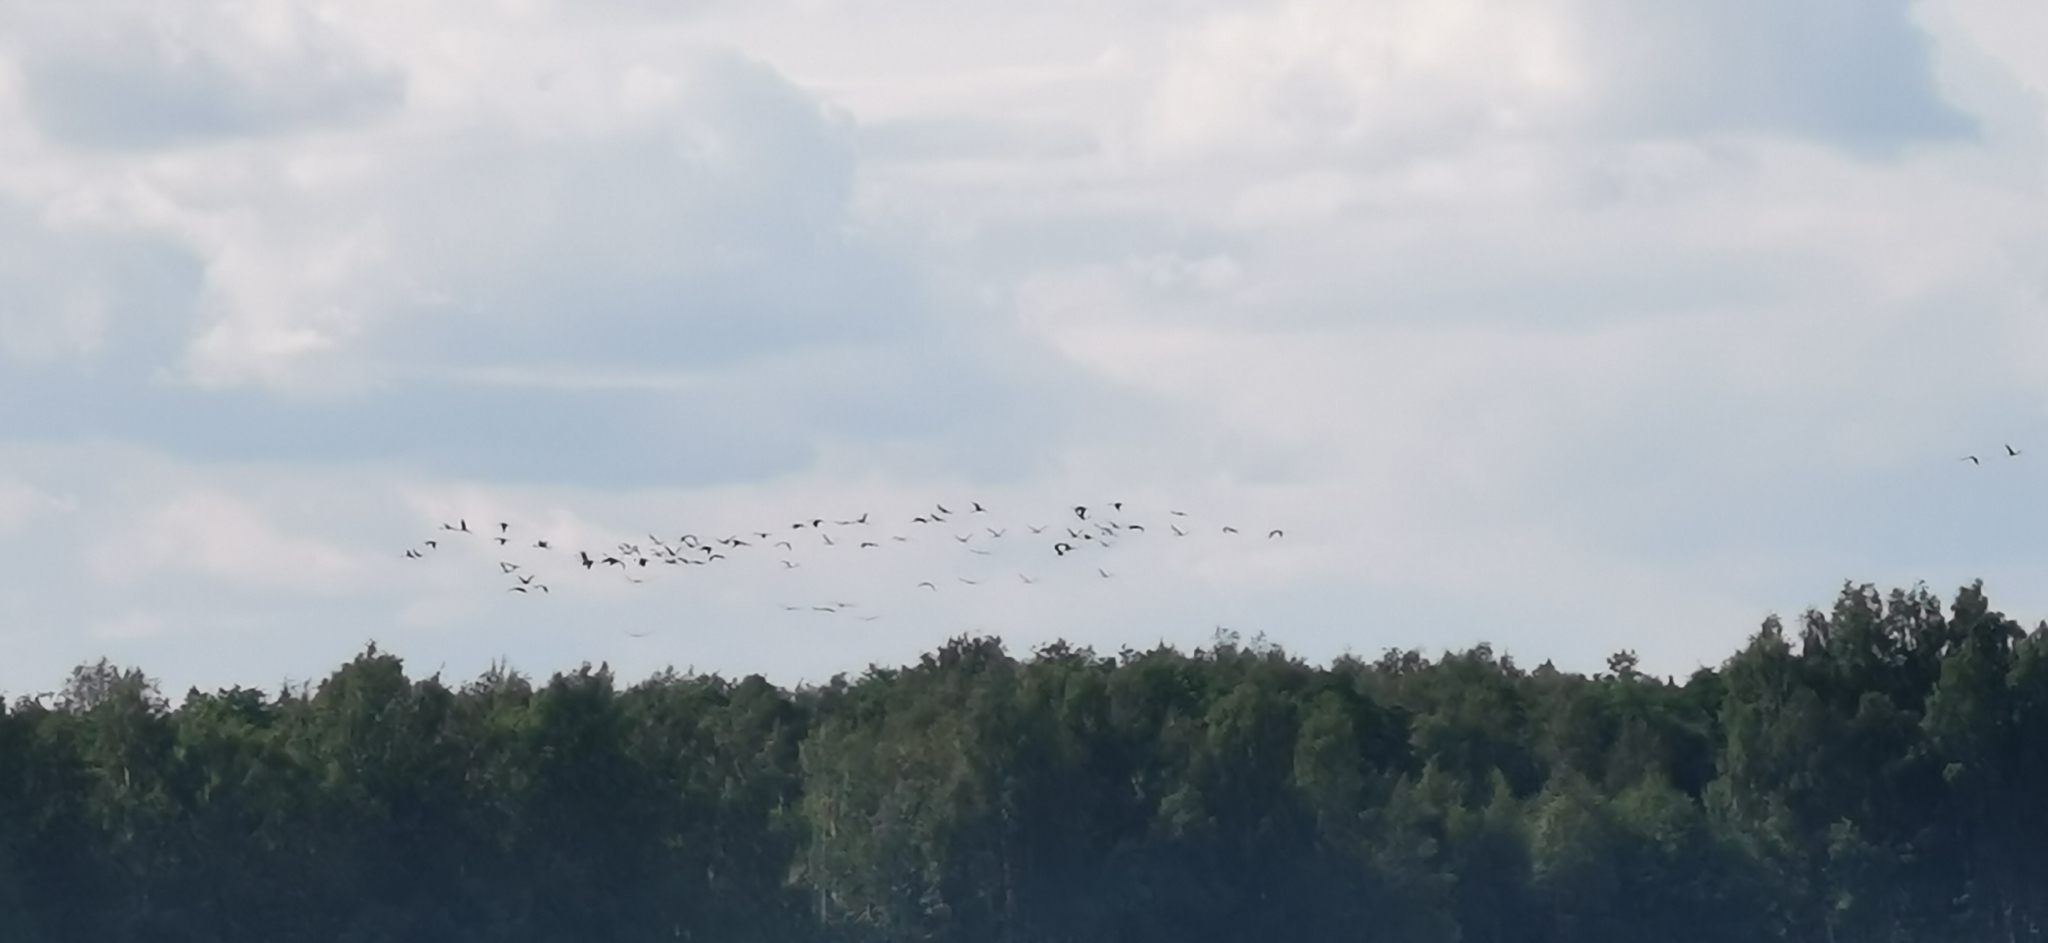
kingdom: Animalia
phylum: Chordata
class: Aves
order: Gruiformes
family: Gruidae
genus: Grus
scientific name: Grus grus
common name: Common crane
